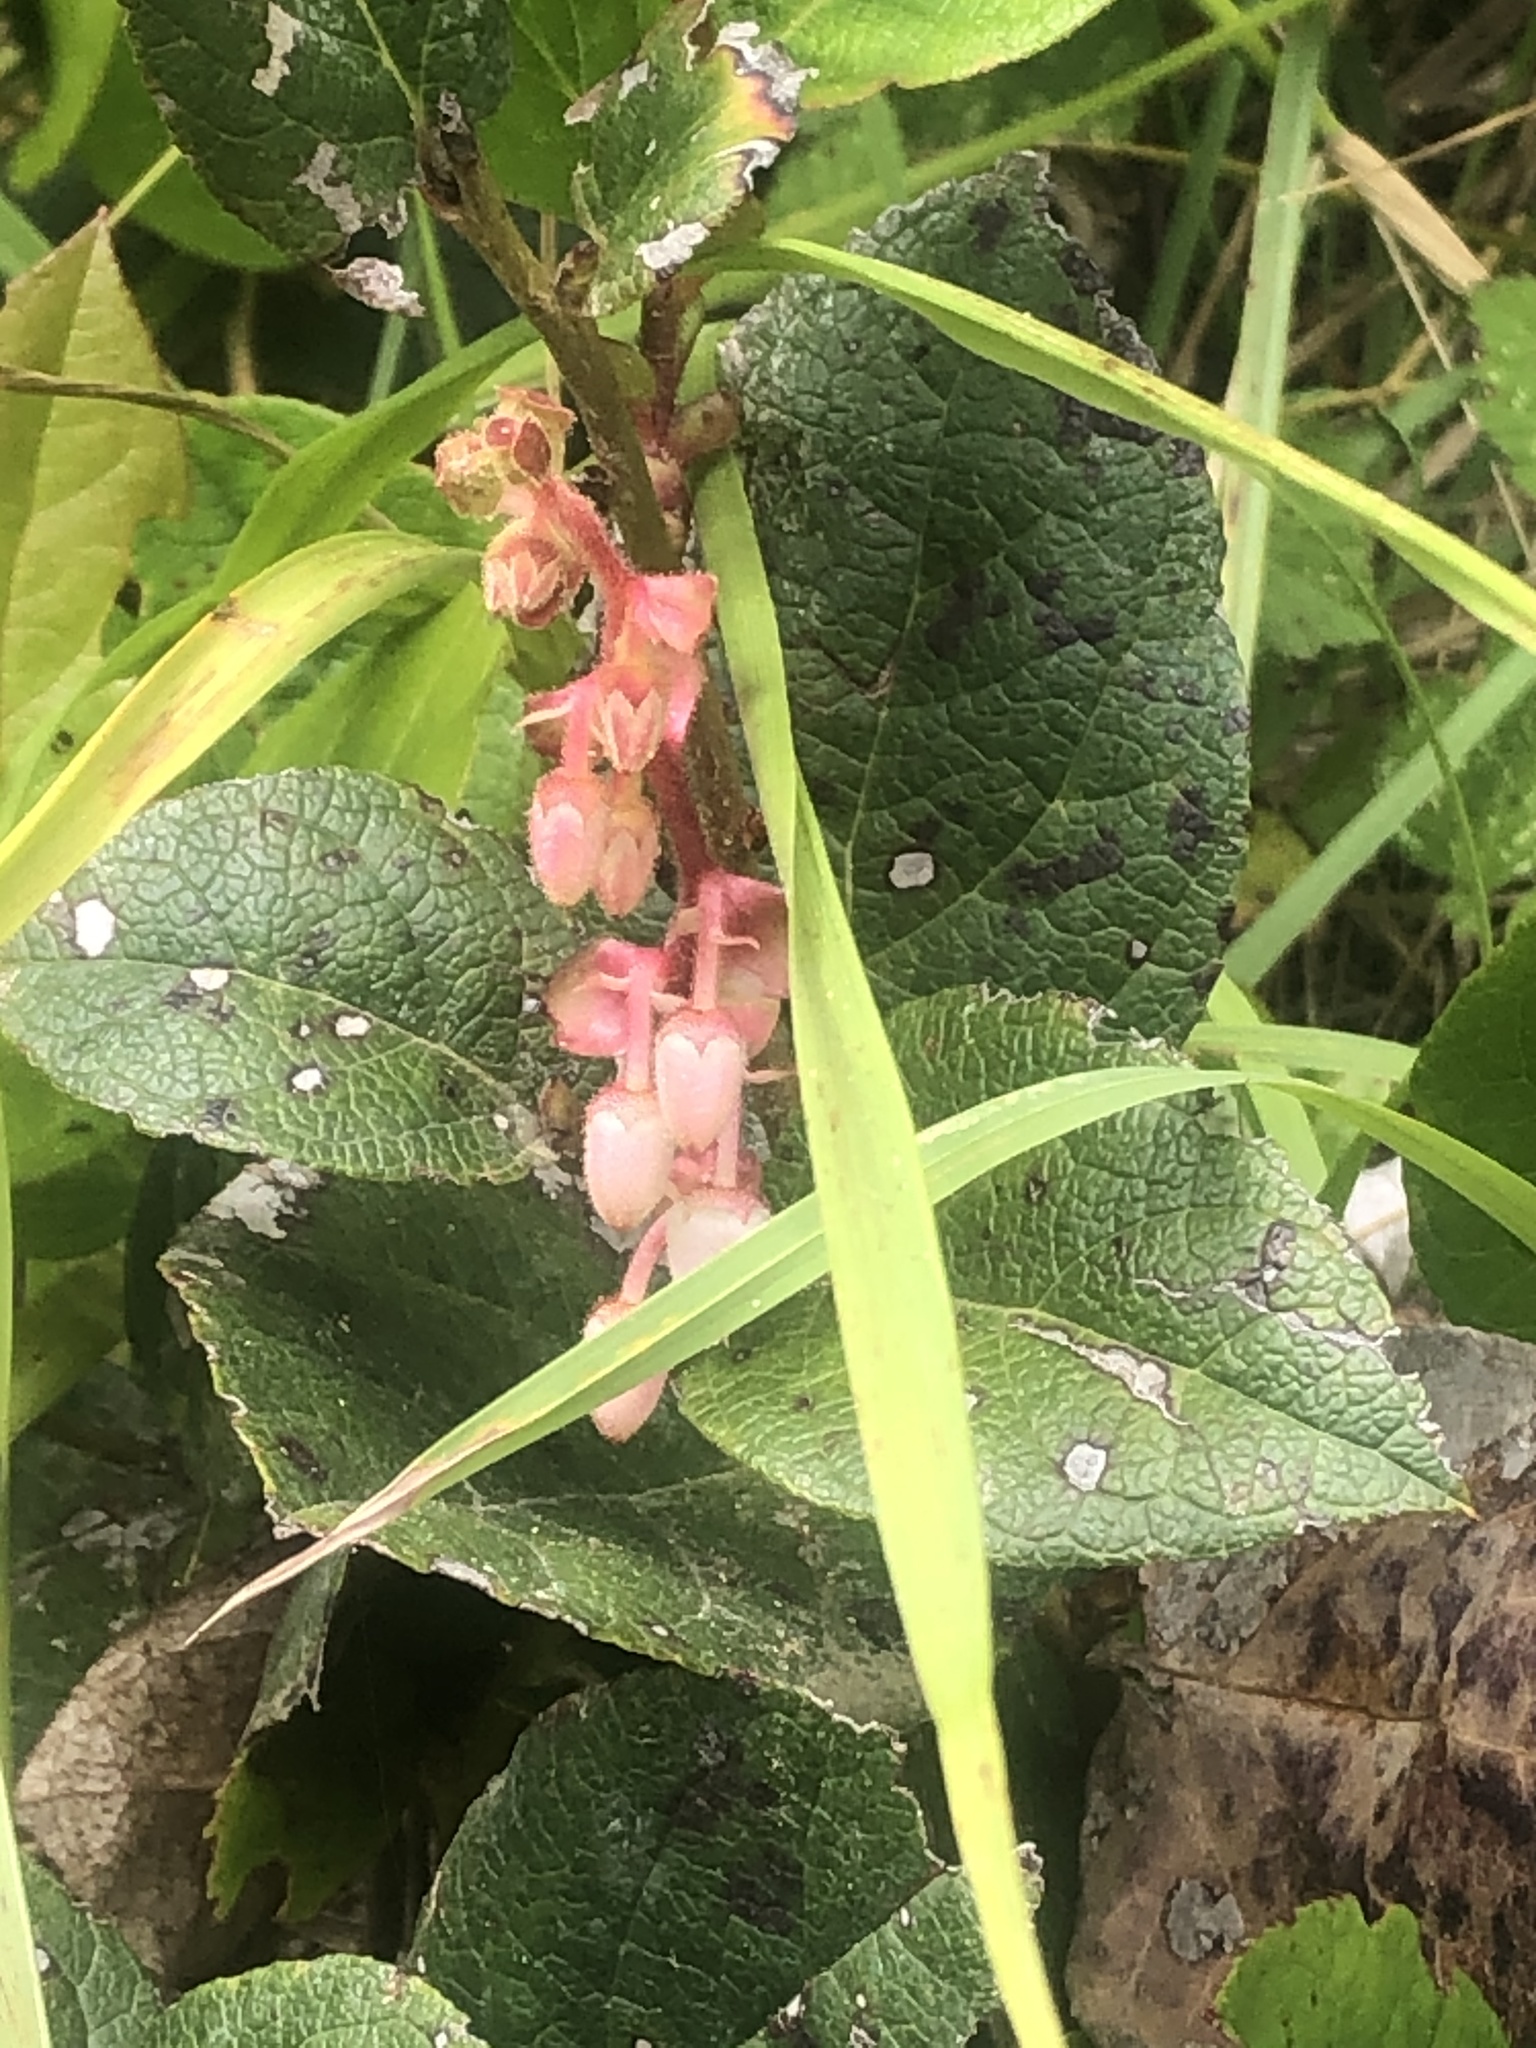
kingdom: Plantae
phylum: Tracheophyta
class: Magnoliopsida
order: Ericales
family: Ericaceae
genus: Gaultheria
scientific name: Gaultheria shallon
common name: Shallon
